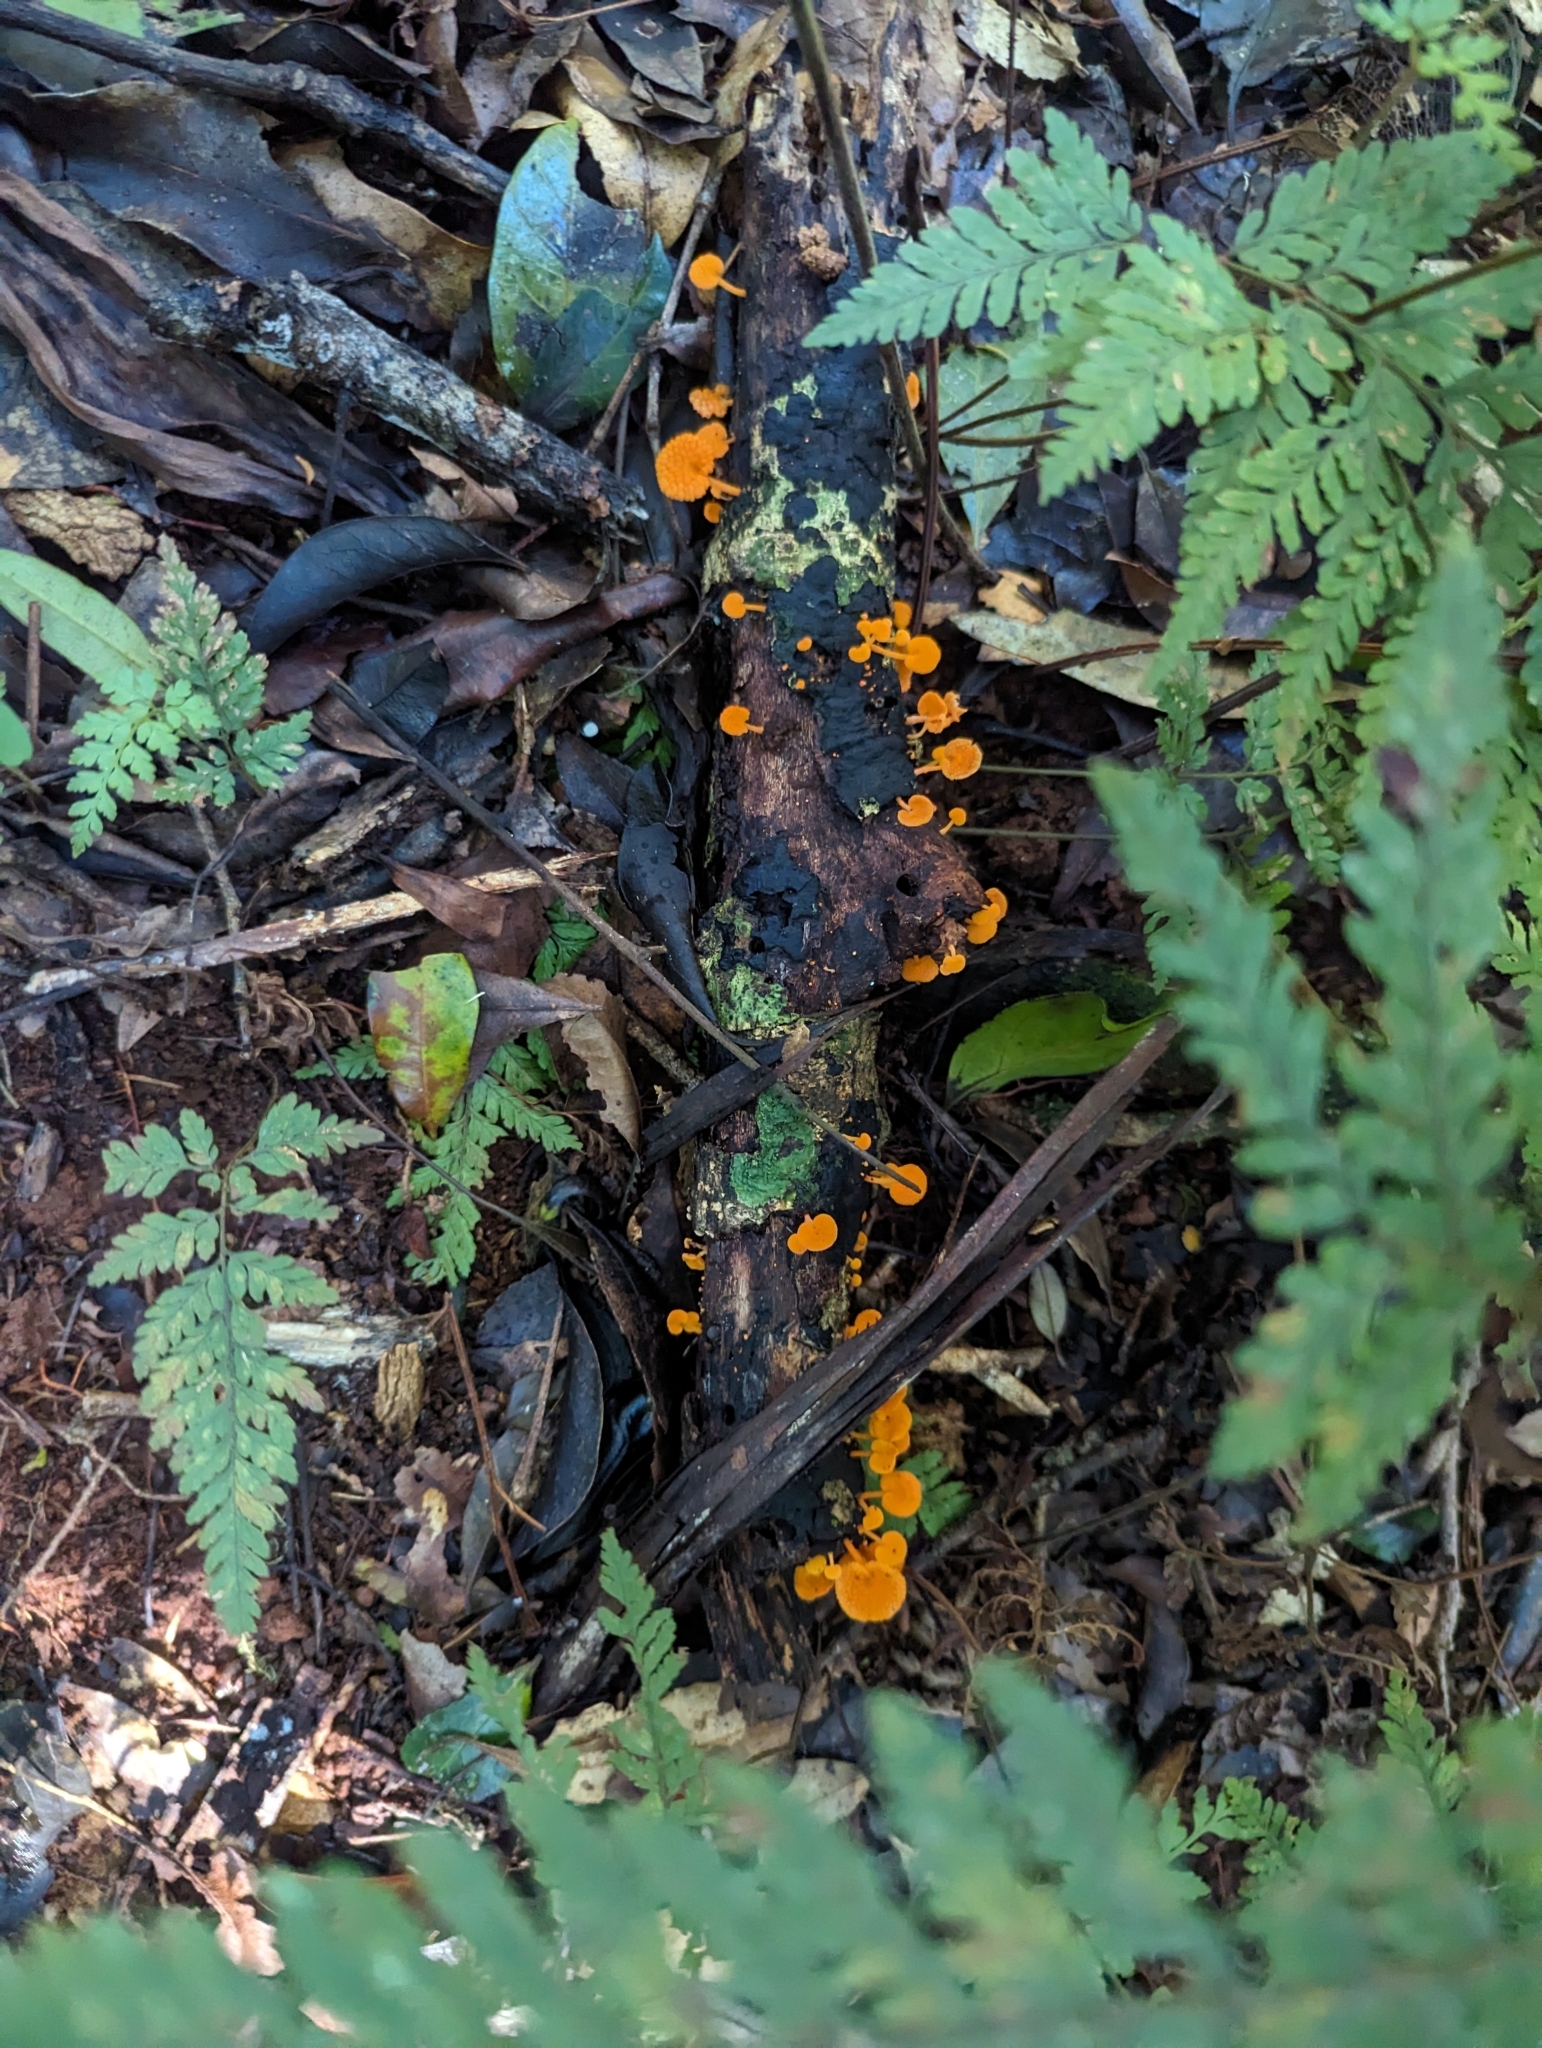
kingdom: Fungi
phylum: Basidiomycota
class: Agaricomycetes
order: Agaricales
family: Mycenaceae
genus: Favolaschia
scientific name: Favolaschia claudopus
